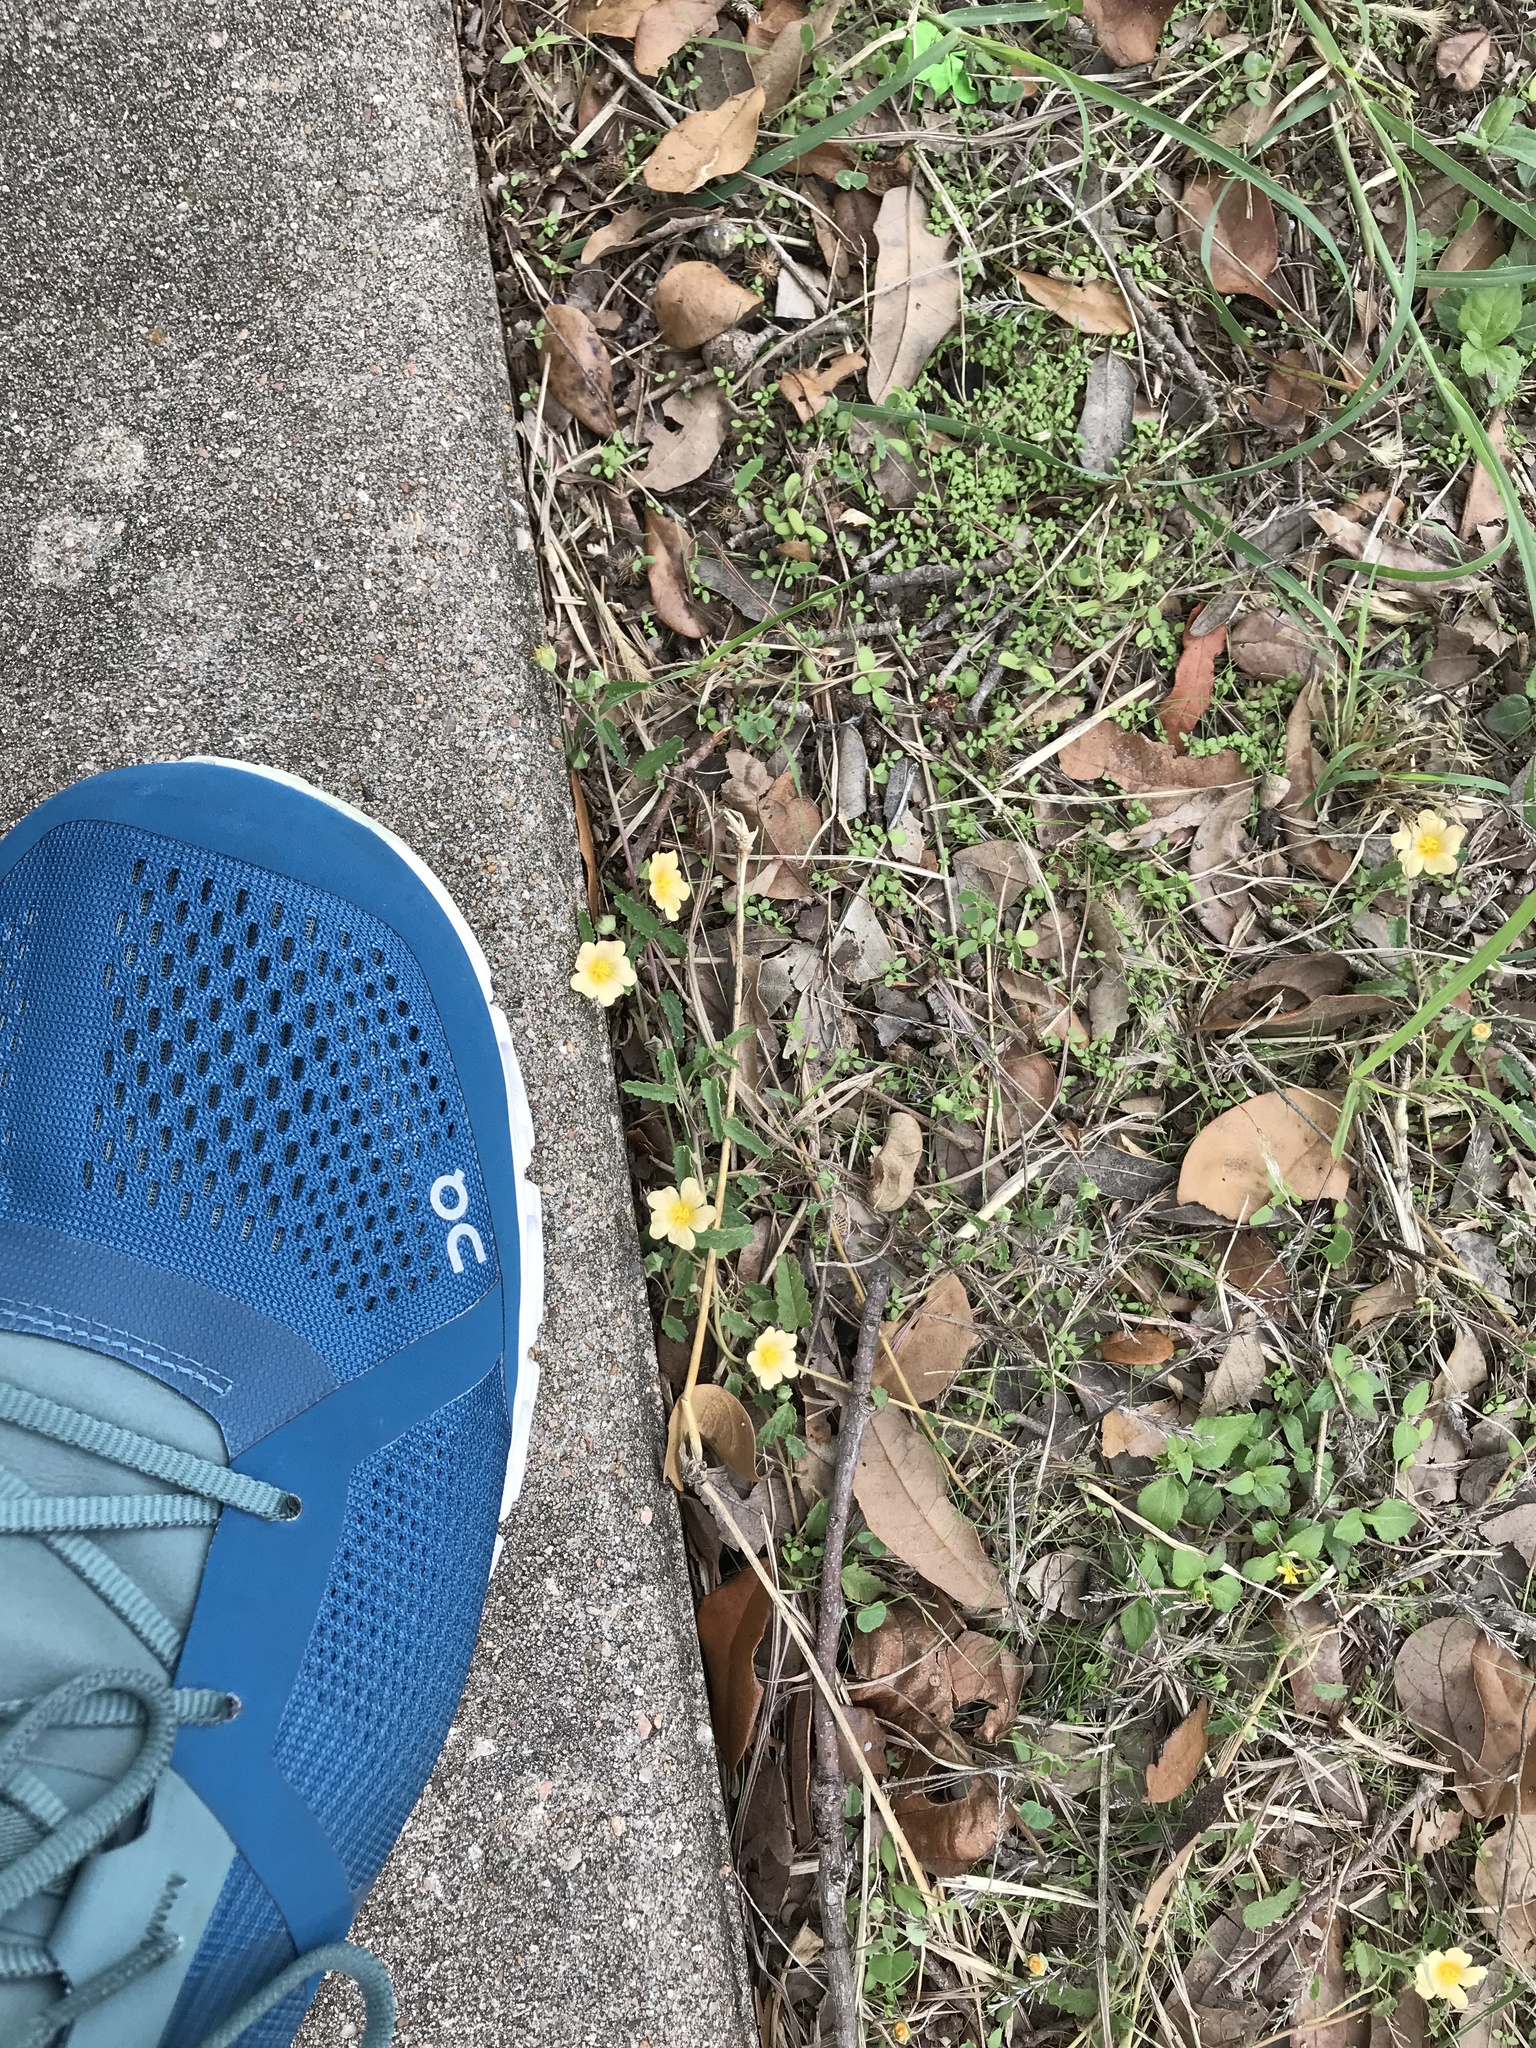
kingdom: Plantae
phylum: Tracheophyta
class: Magnoliopsida
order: Malvales
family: Malvaceae
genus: Sida
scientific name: Sida abutilifolia
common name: Spreading fanpetals
